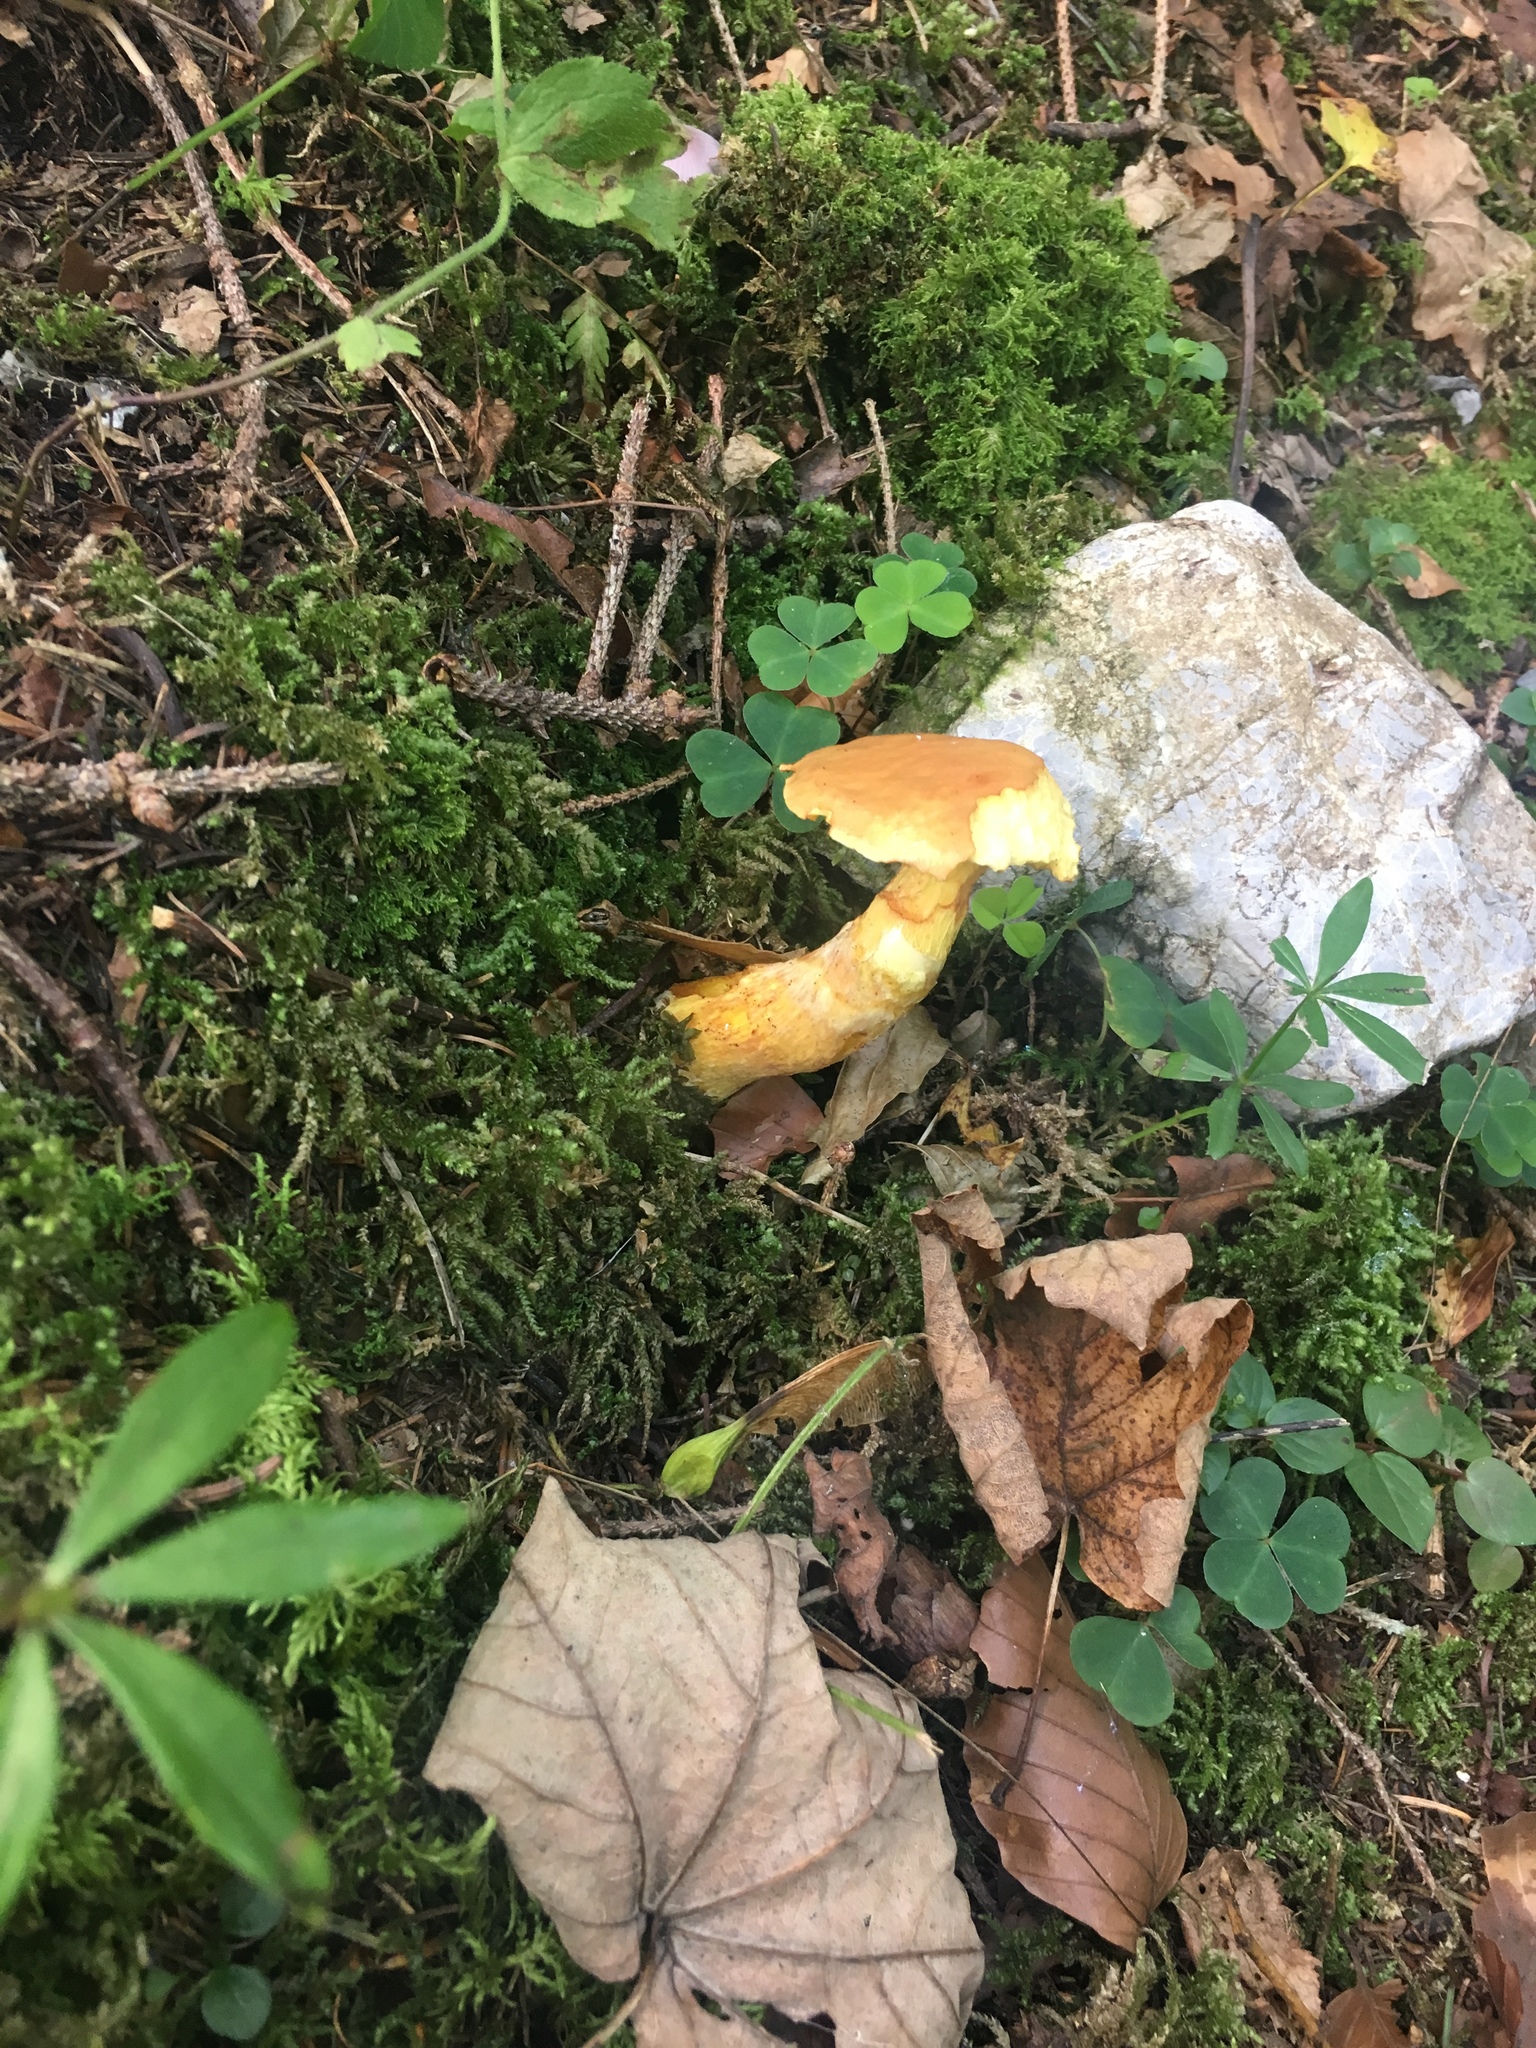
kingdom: Fungi
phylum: Basidiomycota
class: Agaricomycetes
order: Boletales
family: Suillaceae
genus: Suillus
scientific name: Suillus grevillei
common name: Larch bolete
